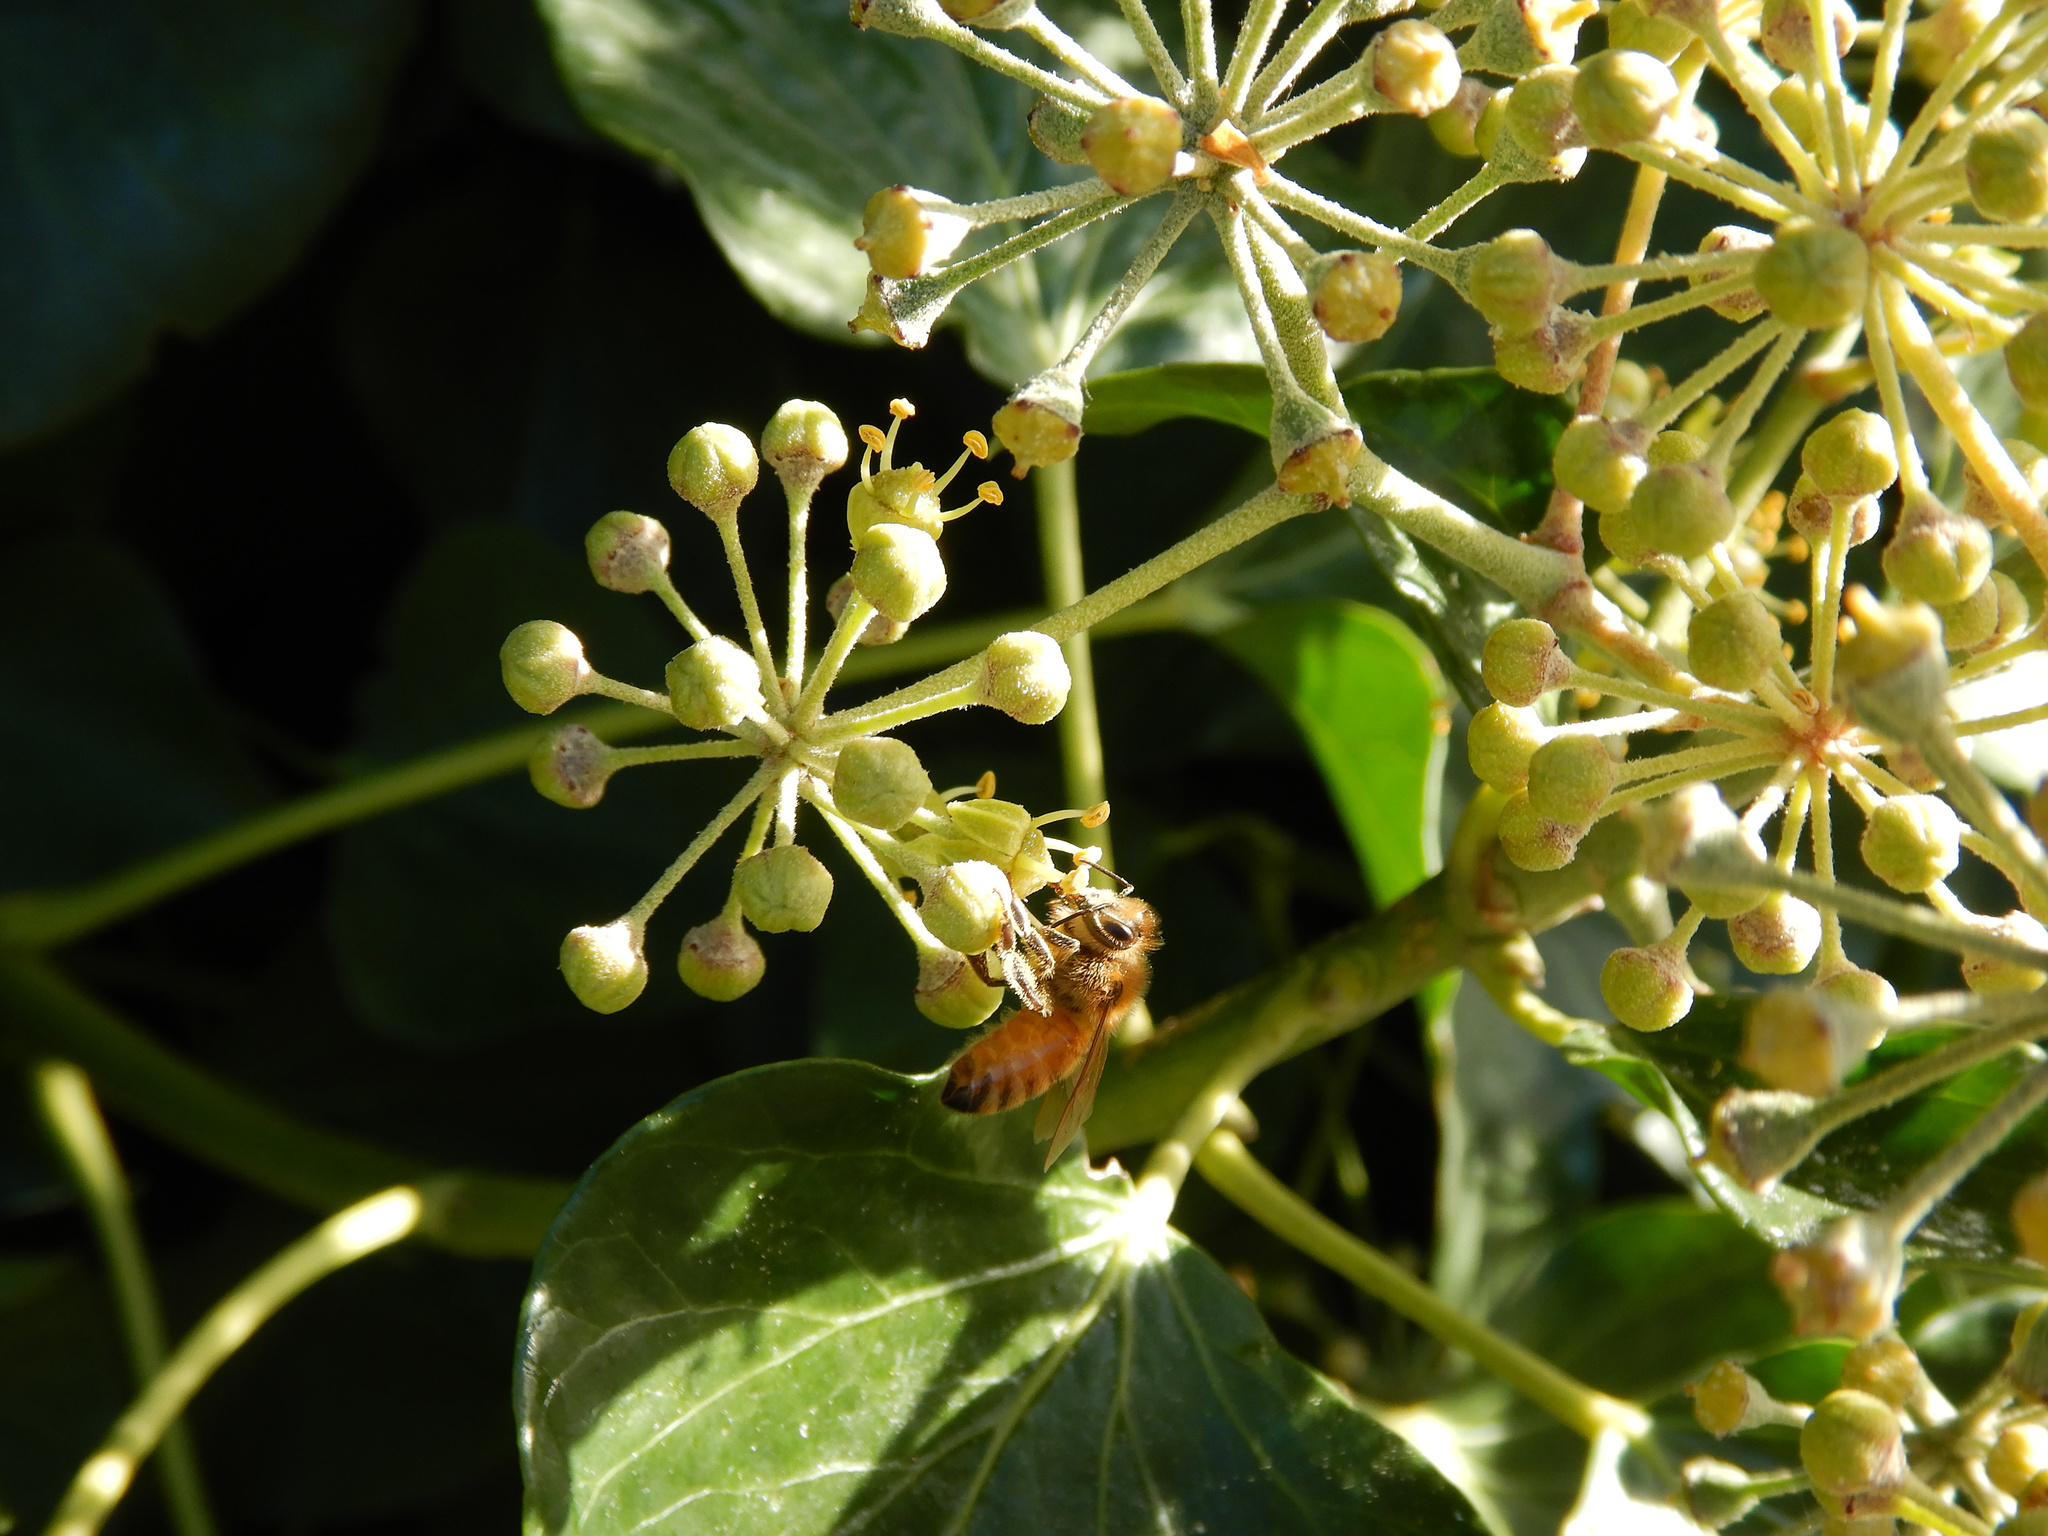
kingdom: Animalia
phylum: Arthropoda
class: Insecta
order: Hymenoptera
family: Apidae
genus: Apis
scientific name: Apis mellifera
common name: Honey bee
